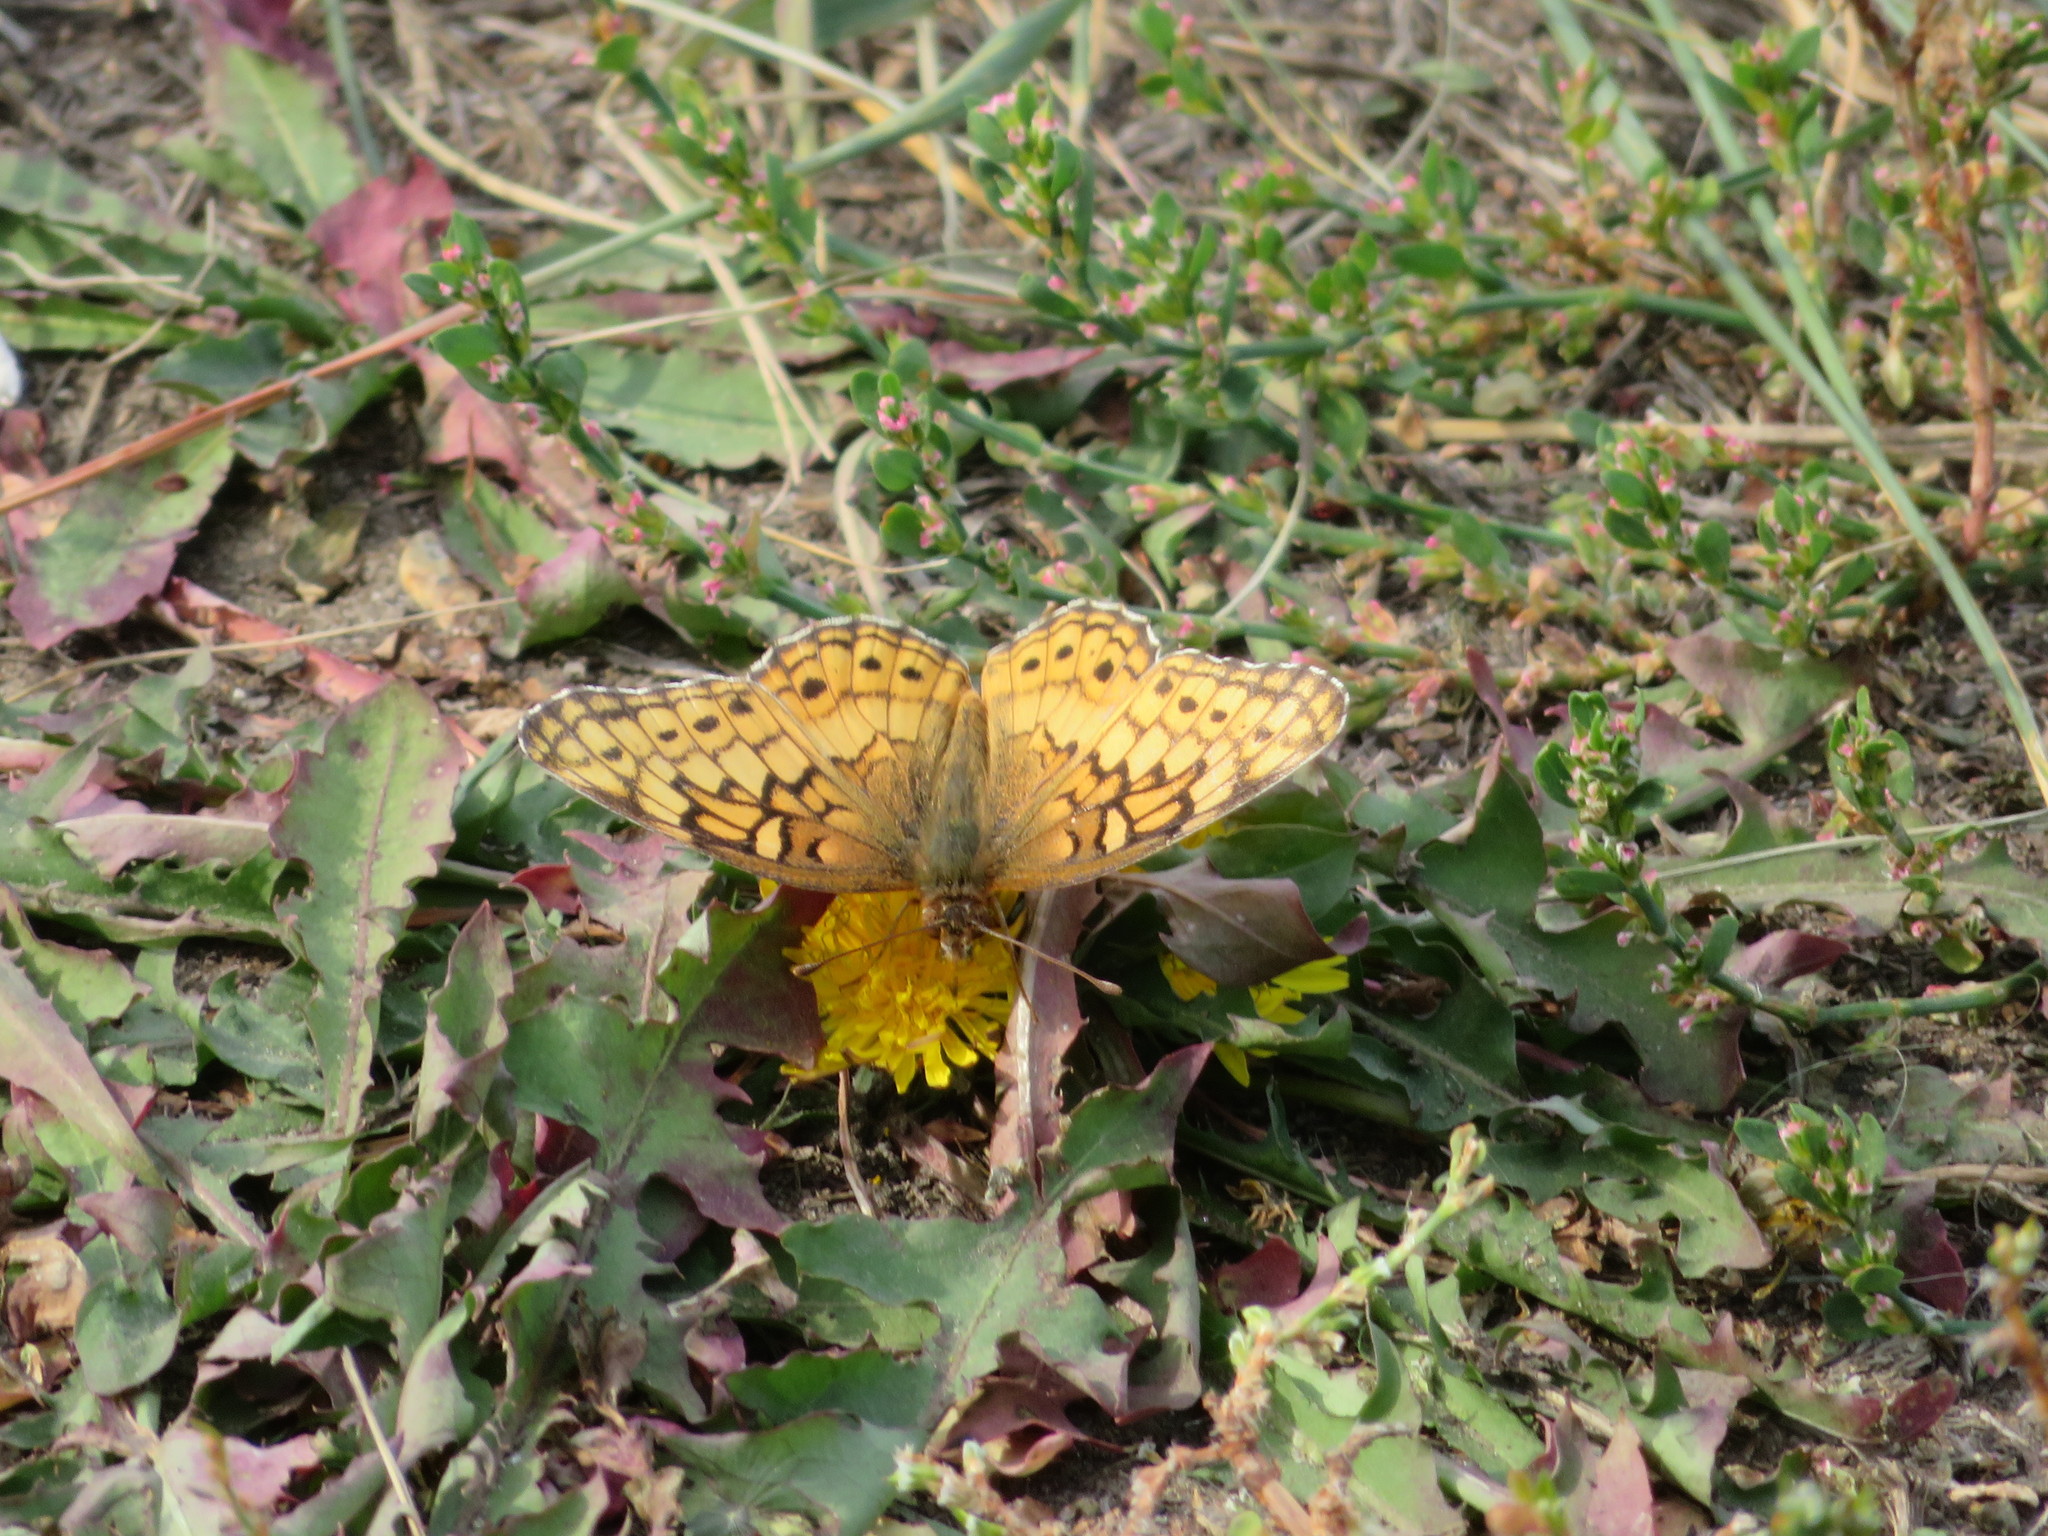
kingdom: Animalia
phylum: Arthropoda
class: Insecta
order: Lepidoptera
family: Nymphalidae
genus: Euptoieta
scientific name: Euptoieta claudia
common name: Variegated fritillary
